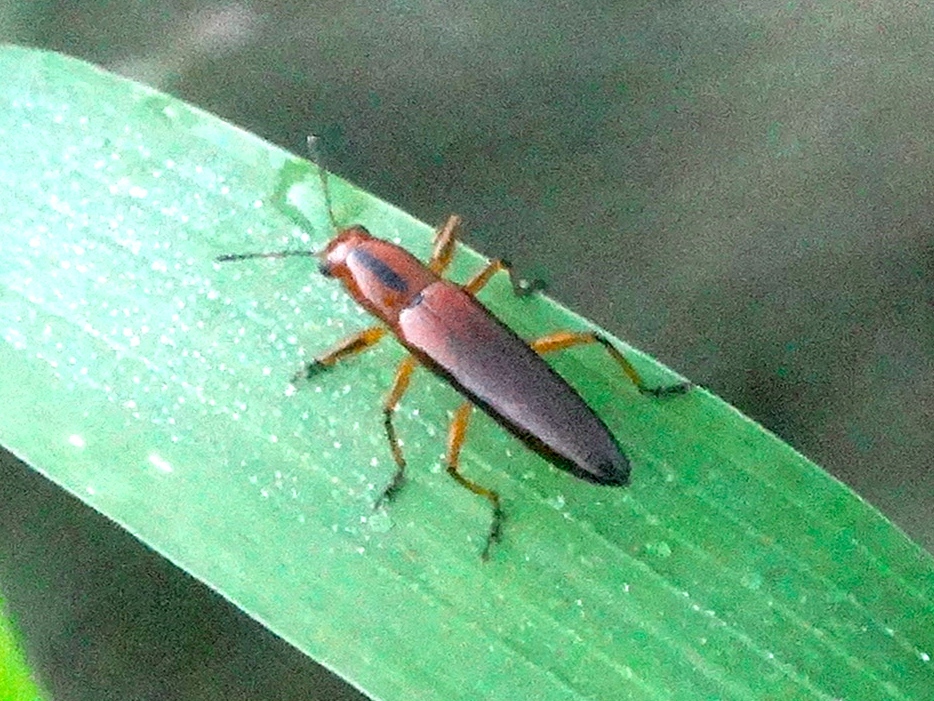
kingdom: Animalia
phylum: Arthropoda
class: Insecta
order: Coleoptera
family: Erotylidae
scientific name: Erotylidae
